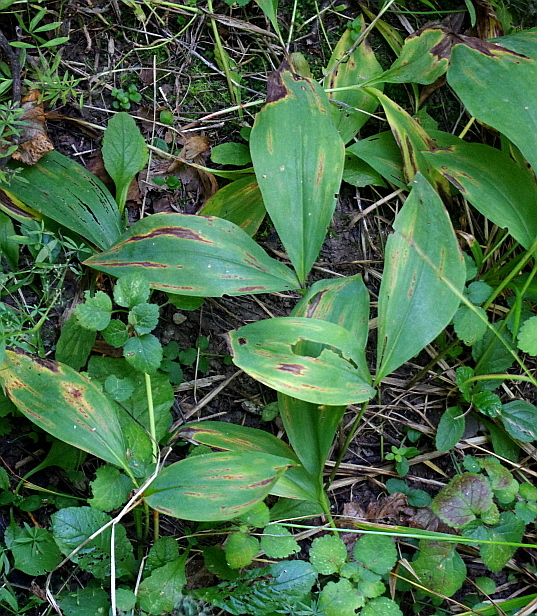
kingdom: Plantae
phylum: Tracheophyta
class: Liliopsida
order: Asparagales
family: Asparagaceae
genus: Convallaria
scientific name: Convallaria majalis
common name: Lily-of-the-valley
